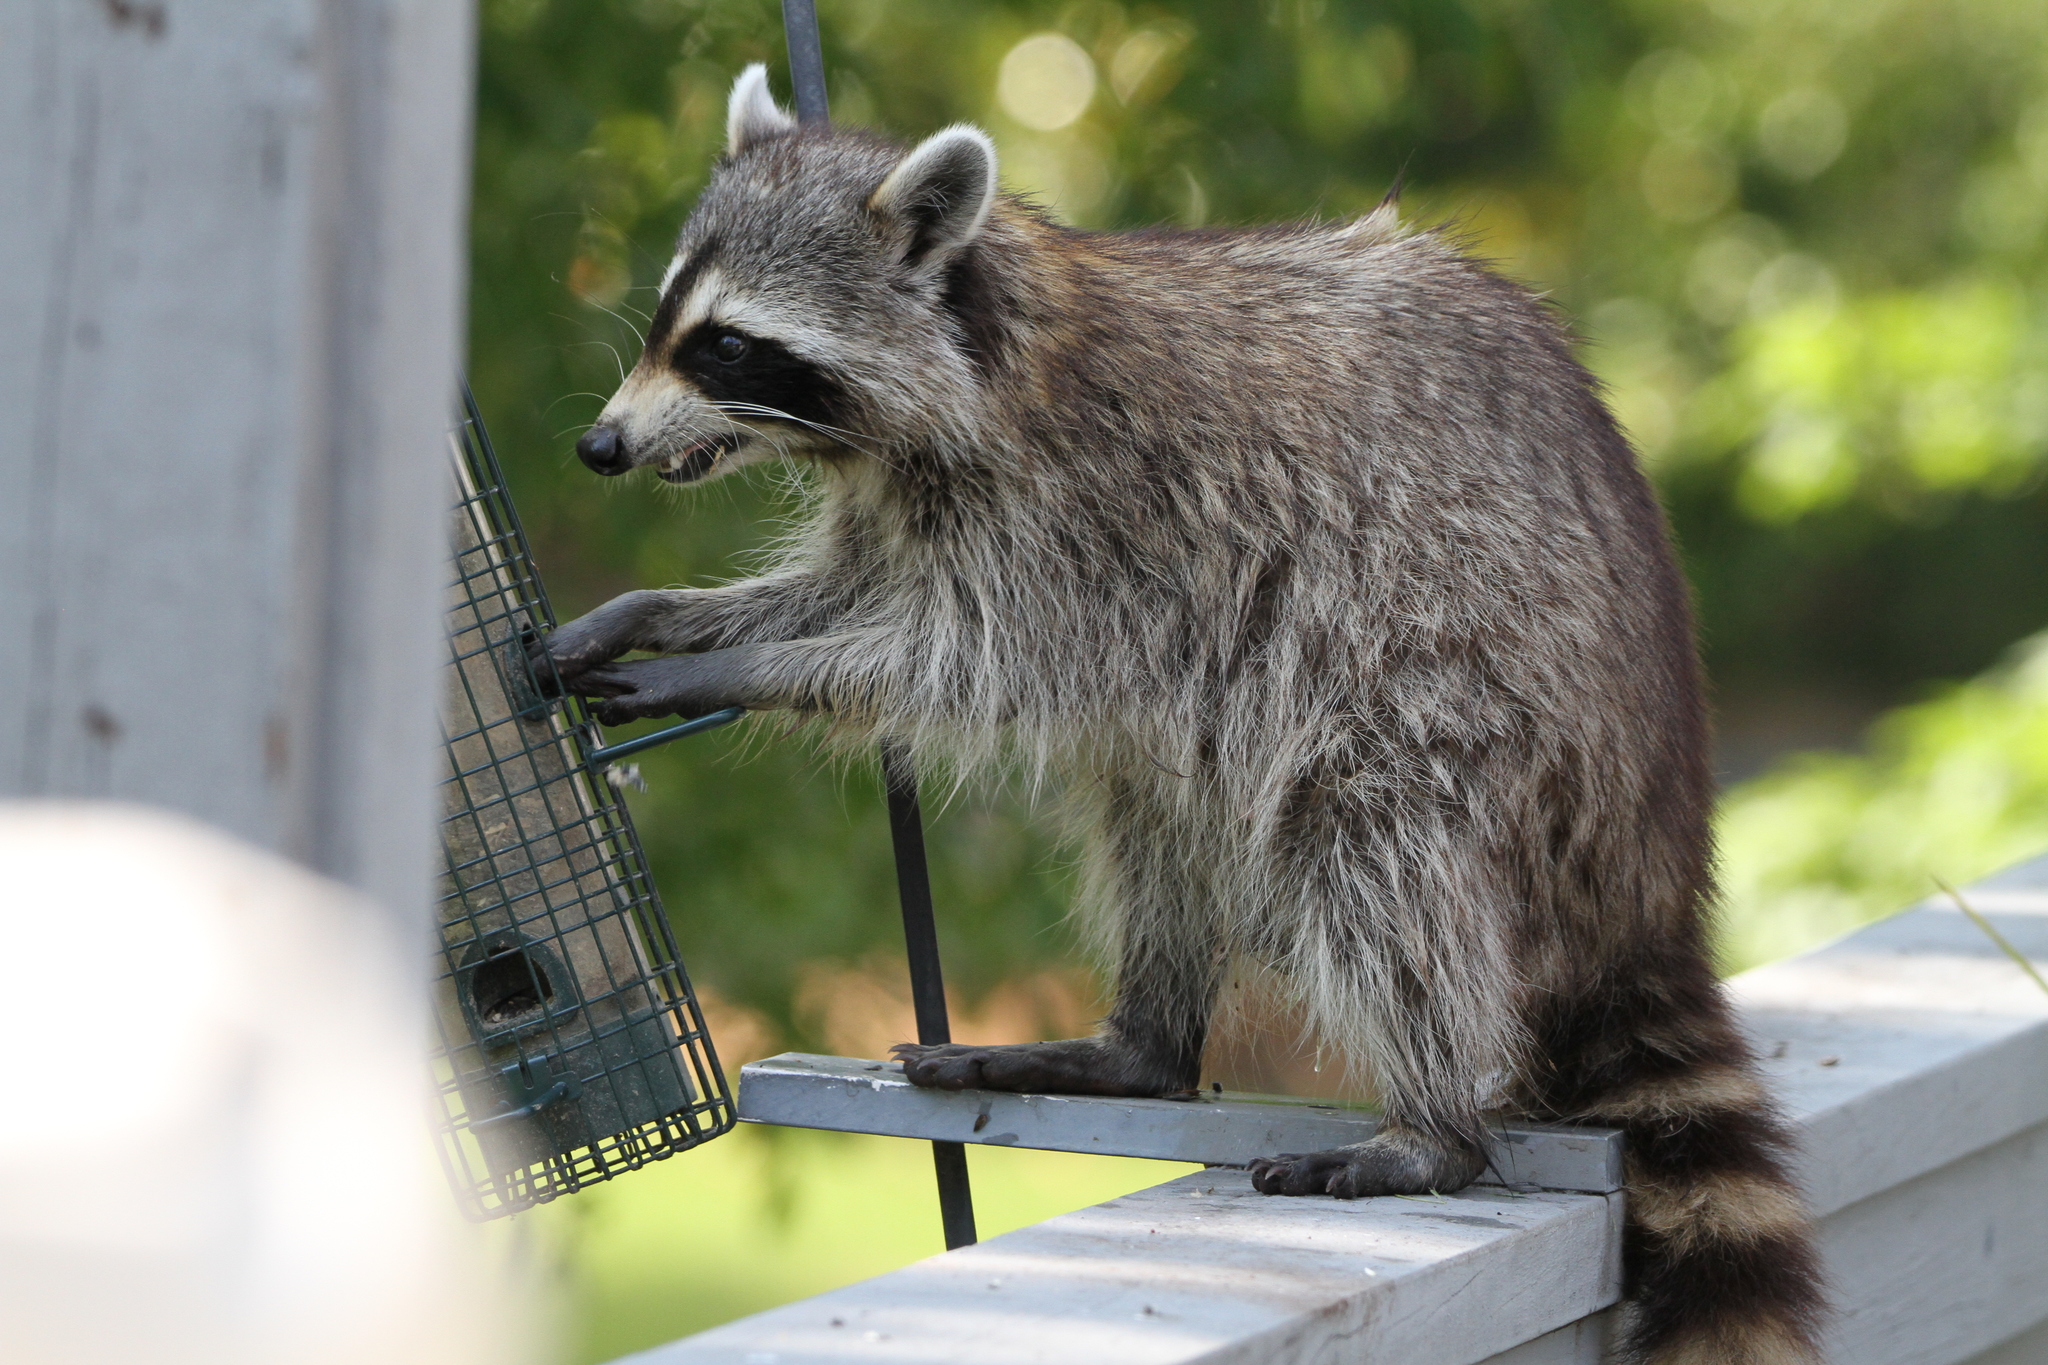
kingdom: Animalia
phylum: Chordata
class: Mammalia
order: Carnivora
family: Procyonidae
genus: Procyon
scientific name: Procyon lotor
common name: Raccoon
